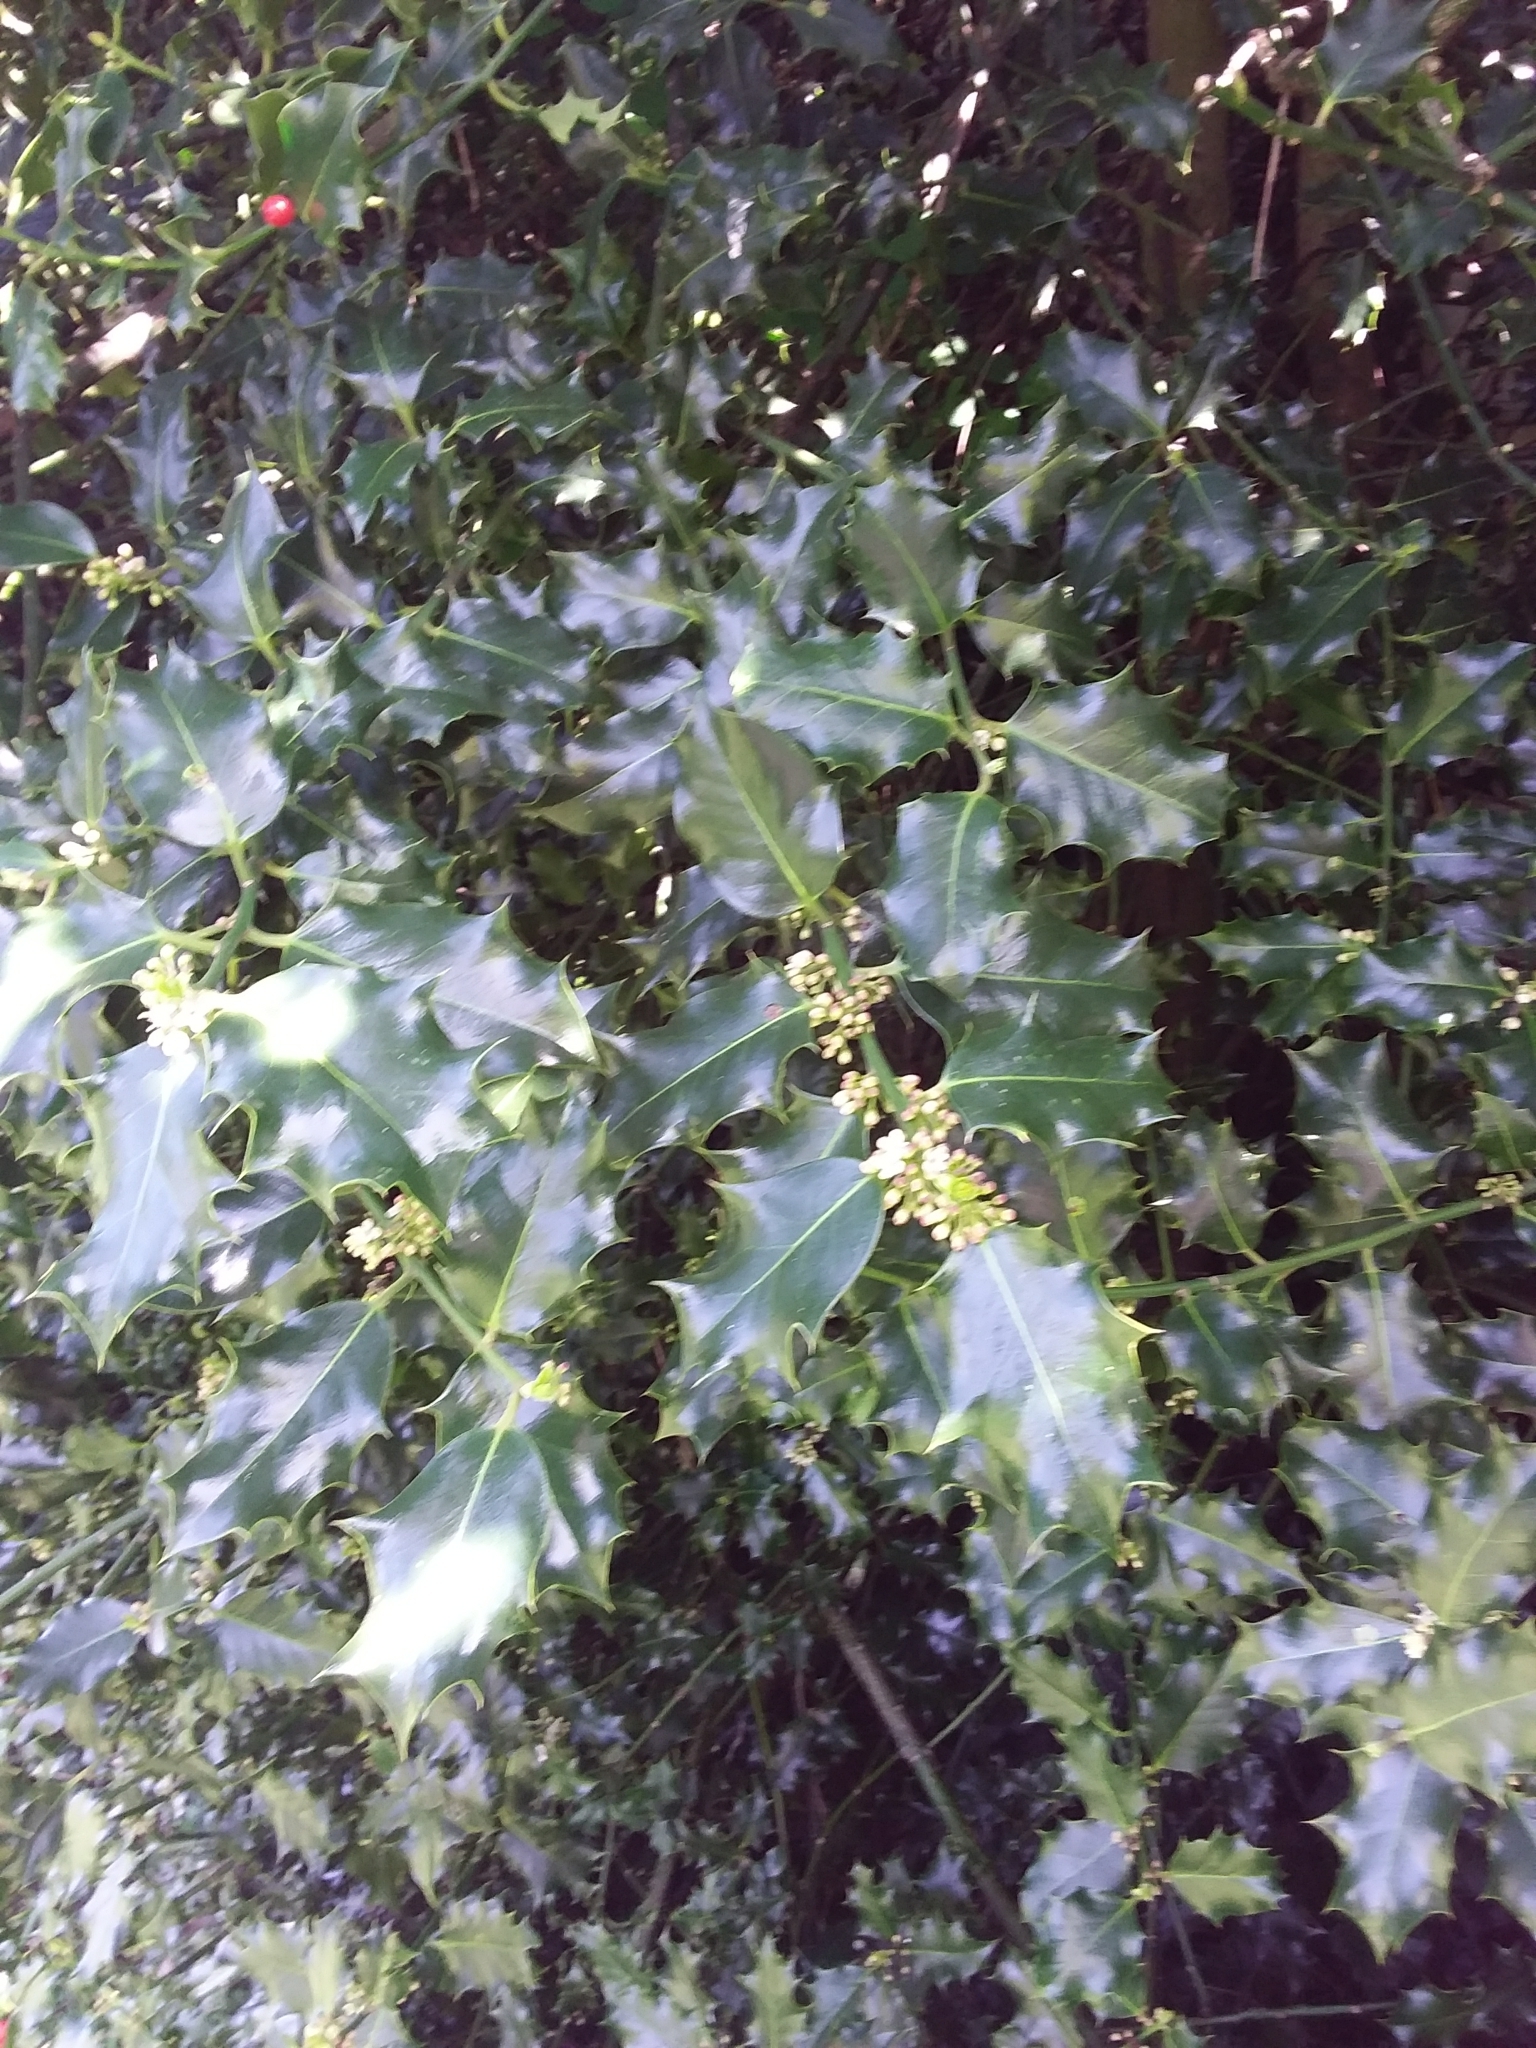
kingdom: Plantae
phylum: Tracheophyta
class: Magnoliopsida
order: Aquifoliales
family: Aquifoliaceae
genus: Ilex
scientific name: Ilex aquifolium
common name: English holly
